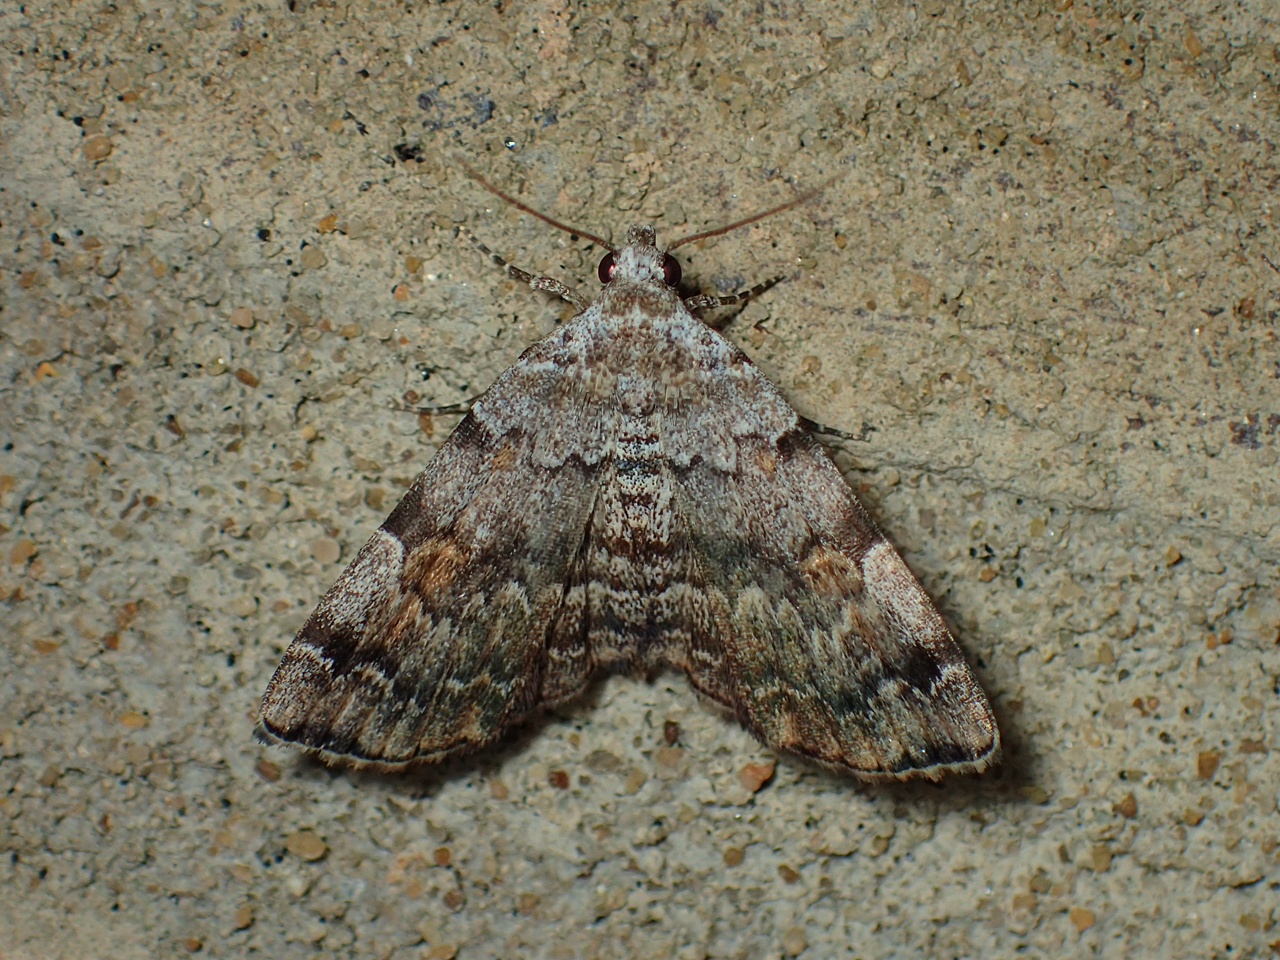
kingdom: Animalia
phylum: Arthropoda
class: Insecta
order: Lepidoptera
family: Erebidae
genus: Idia
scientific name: Idia americalis
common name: American idia moth
